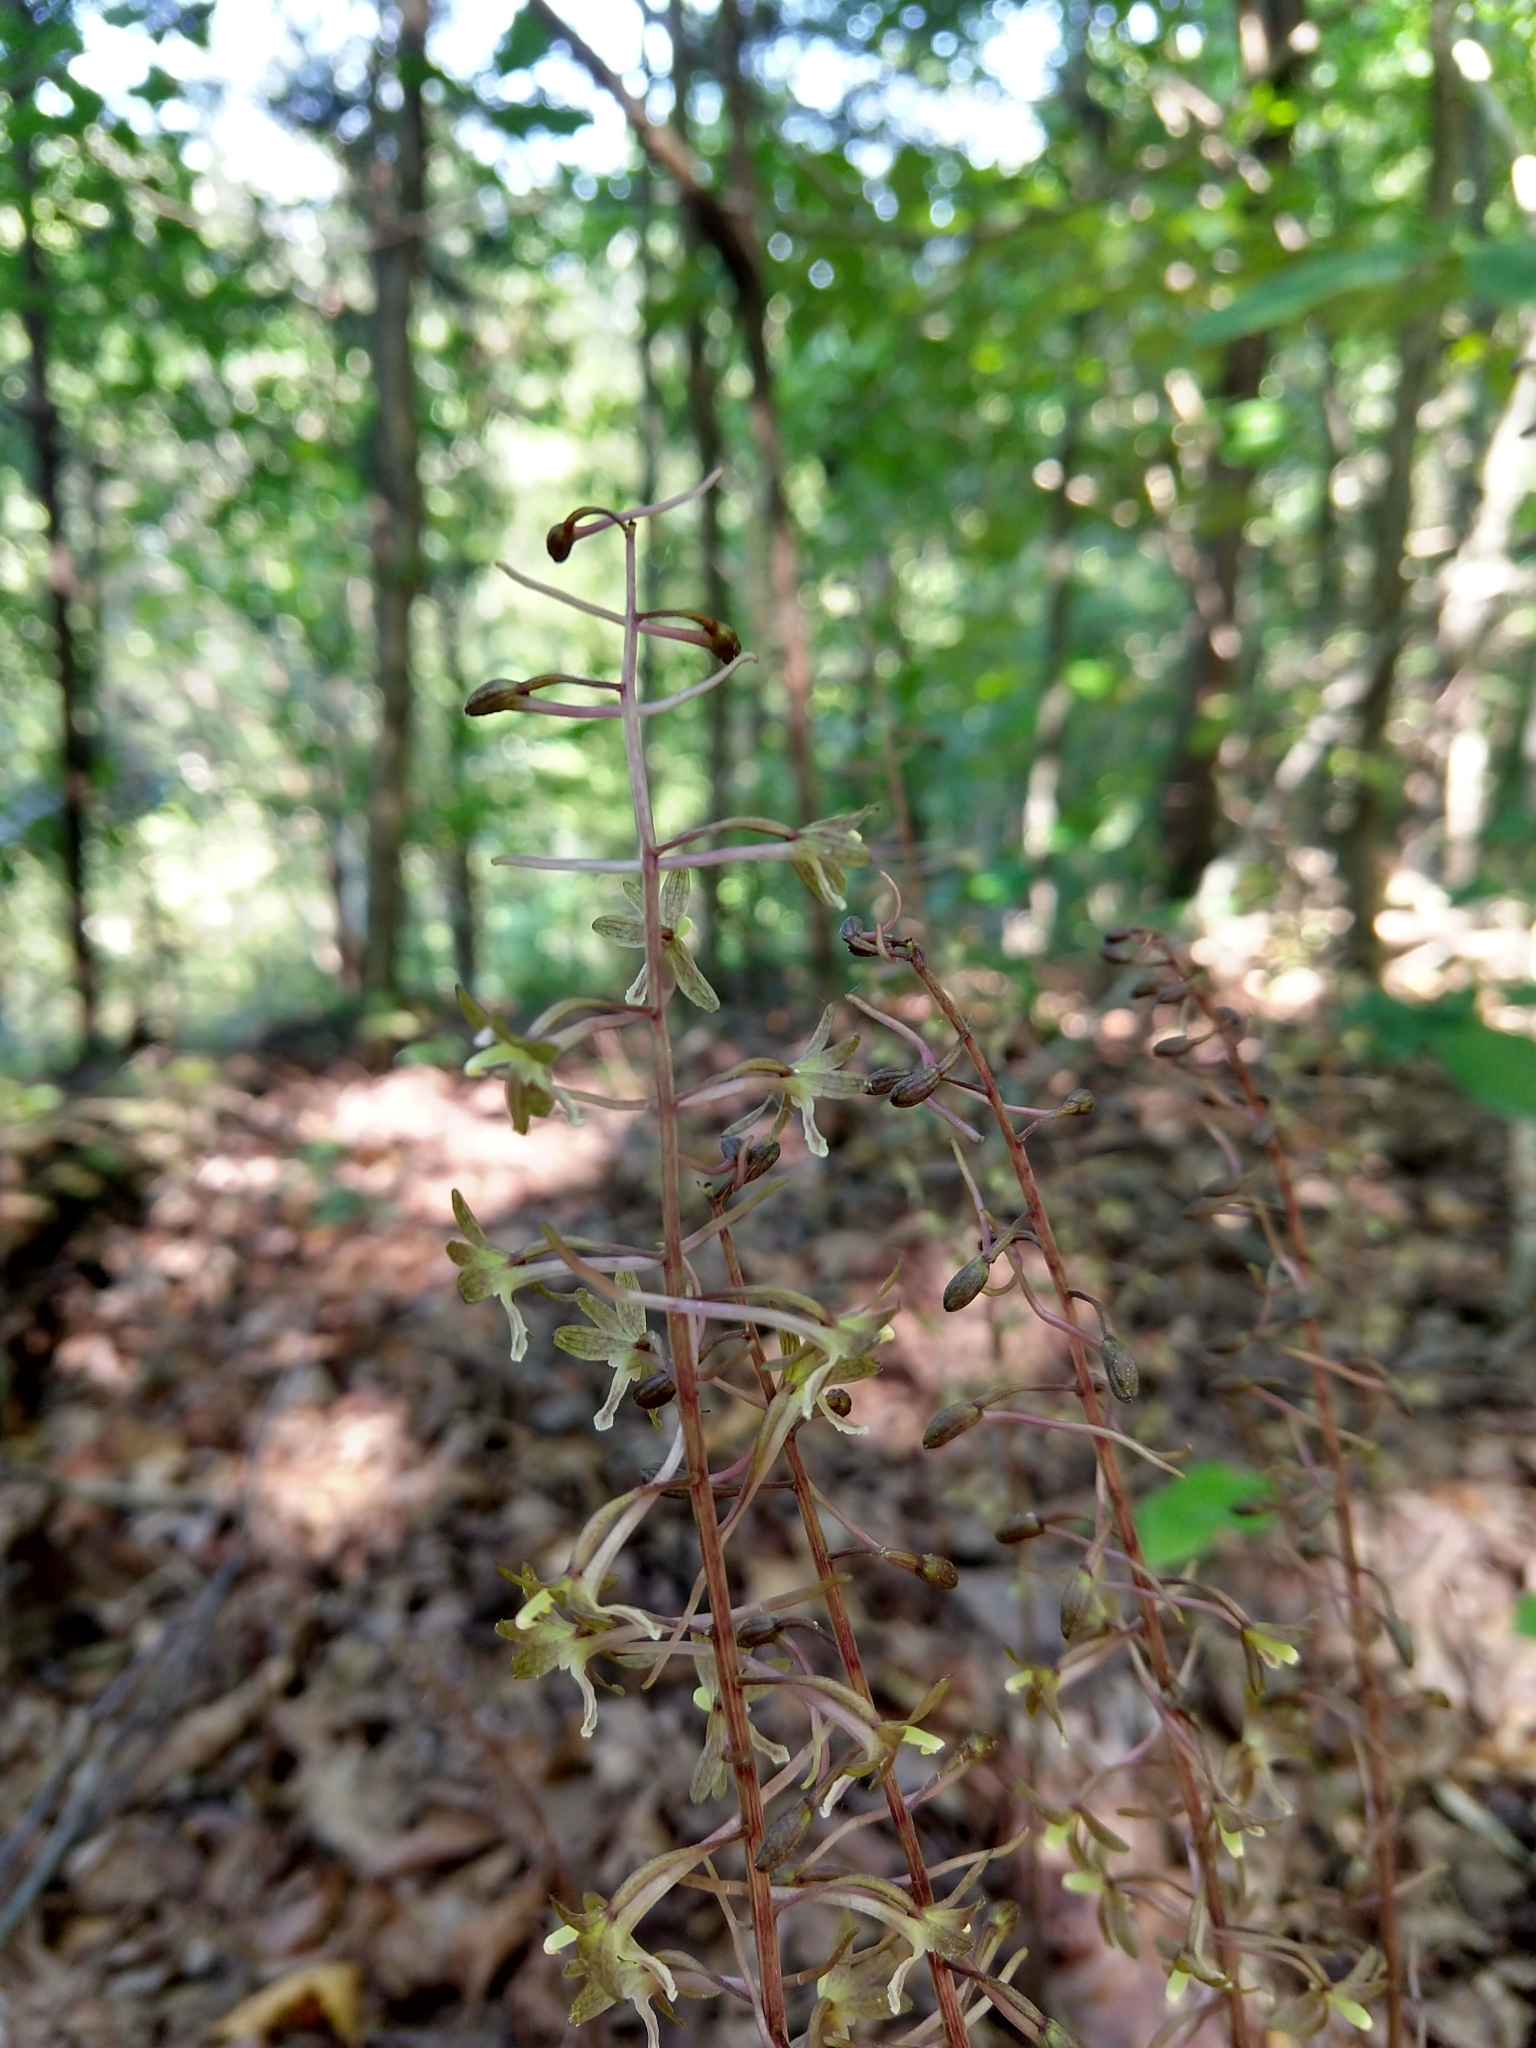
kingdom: Plantae
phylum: Tracheophyta
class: Liliopsida
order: Asparagales
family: Orchidaceae
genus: Tipularia
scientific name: Tipularia discolor
